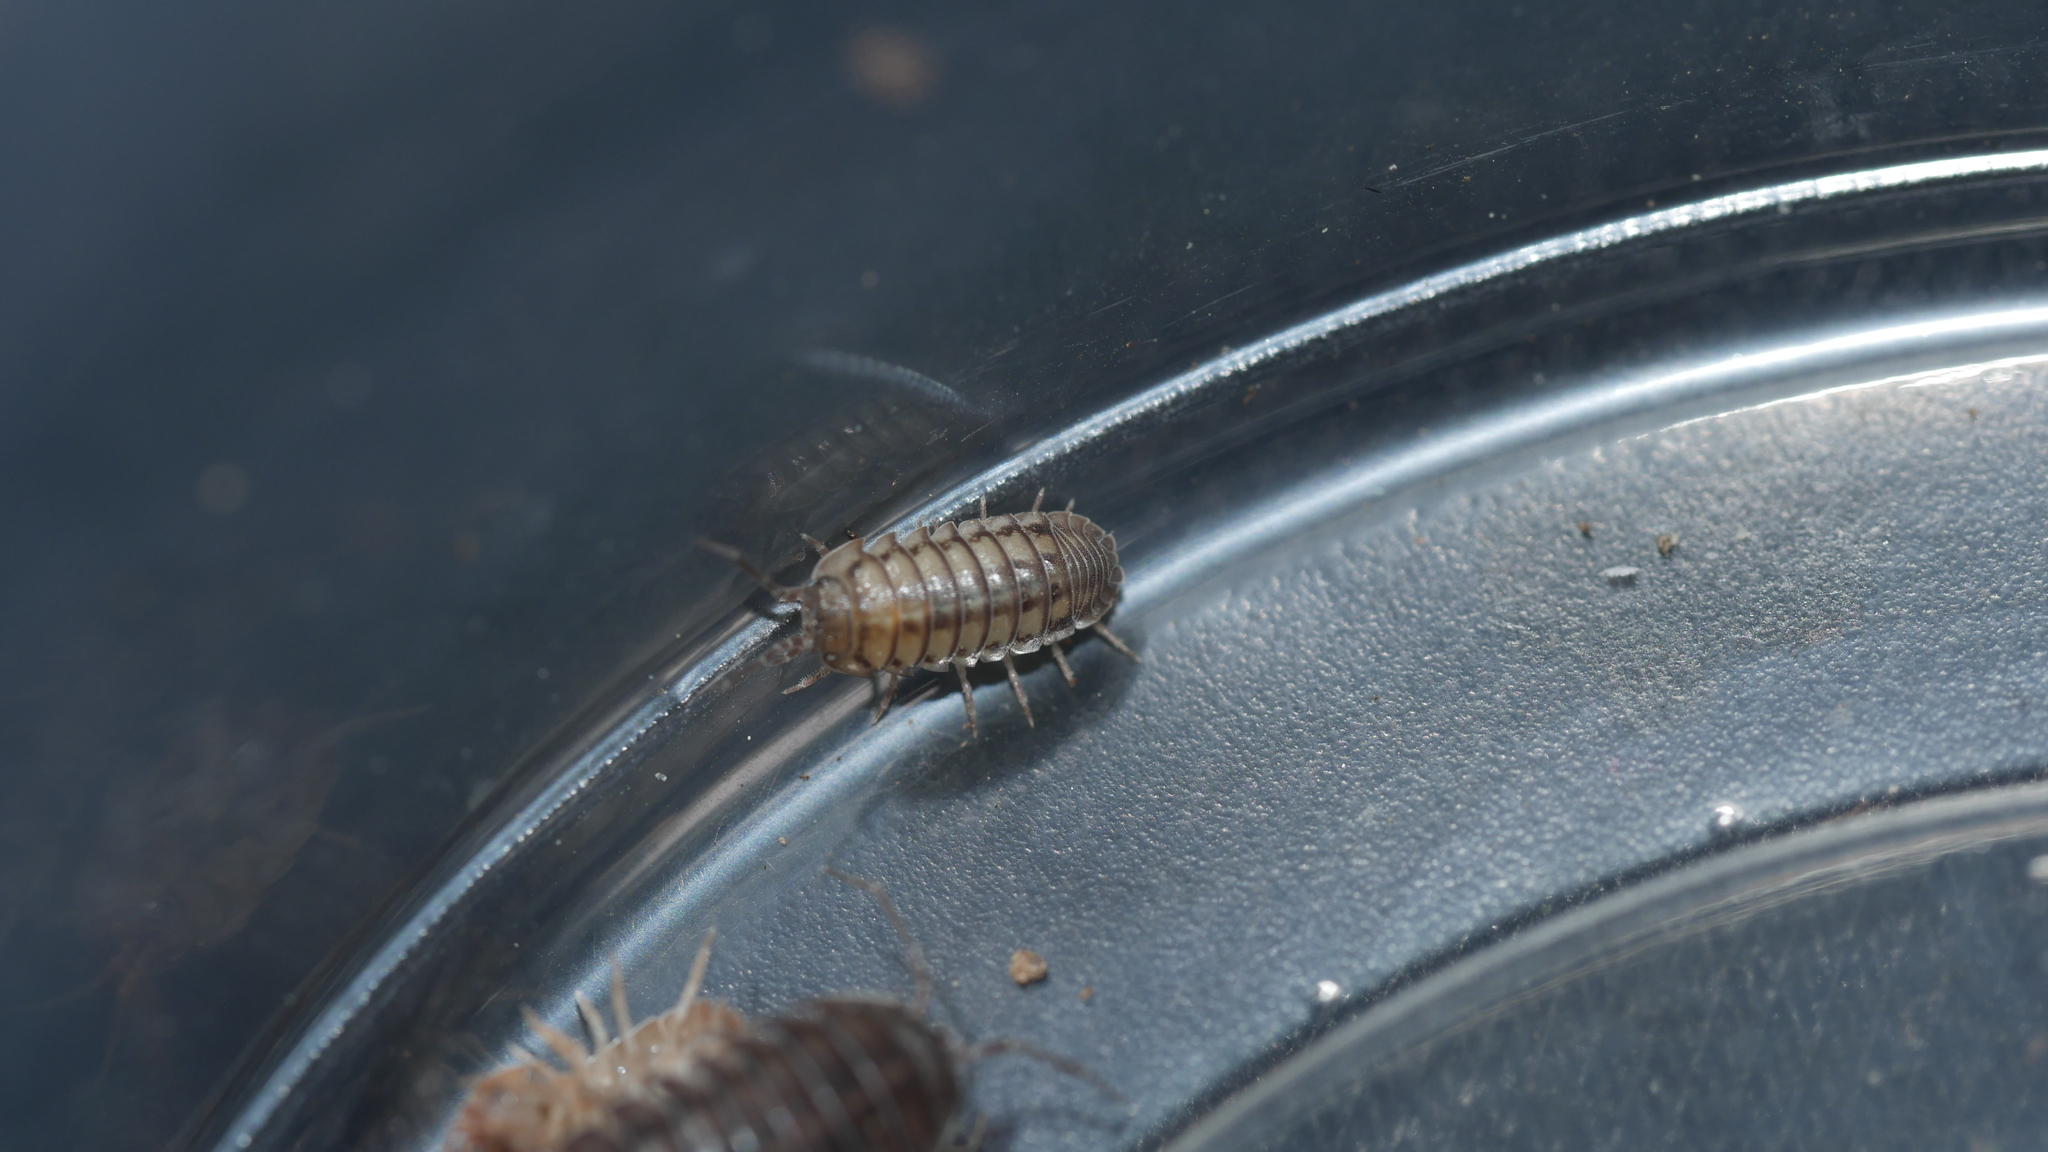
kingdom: Animalia
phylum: Arthropoda
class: Malacostraca
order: Isopoda
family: Armadillidiidae
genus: Armadillidium
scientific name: Armadillidium nasatum
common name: Isopod
